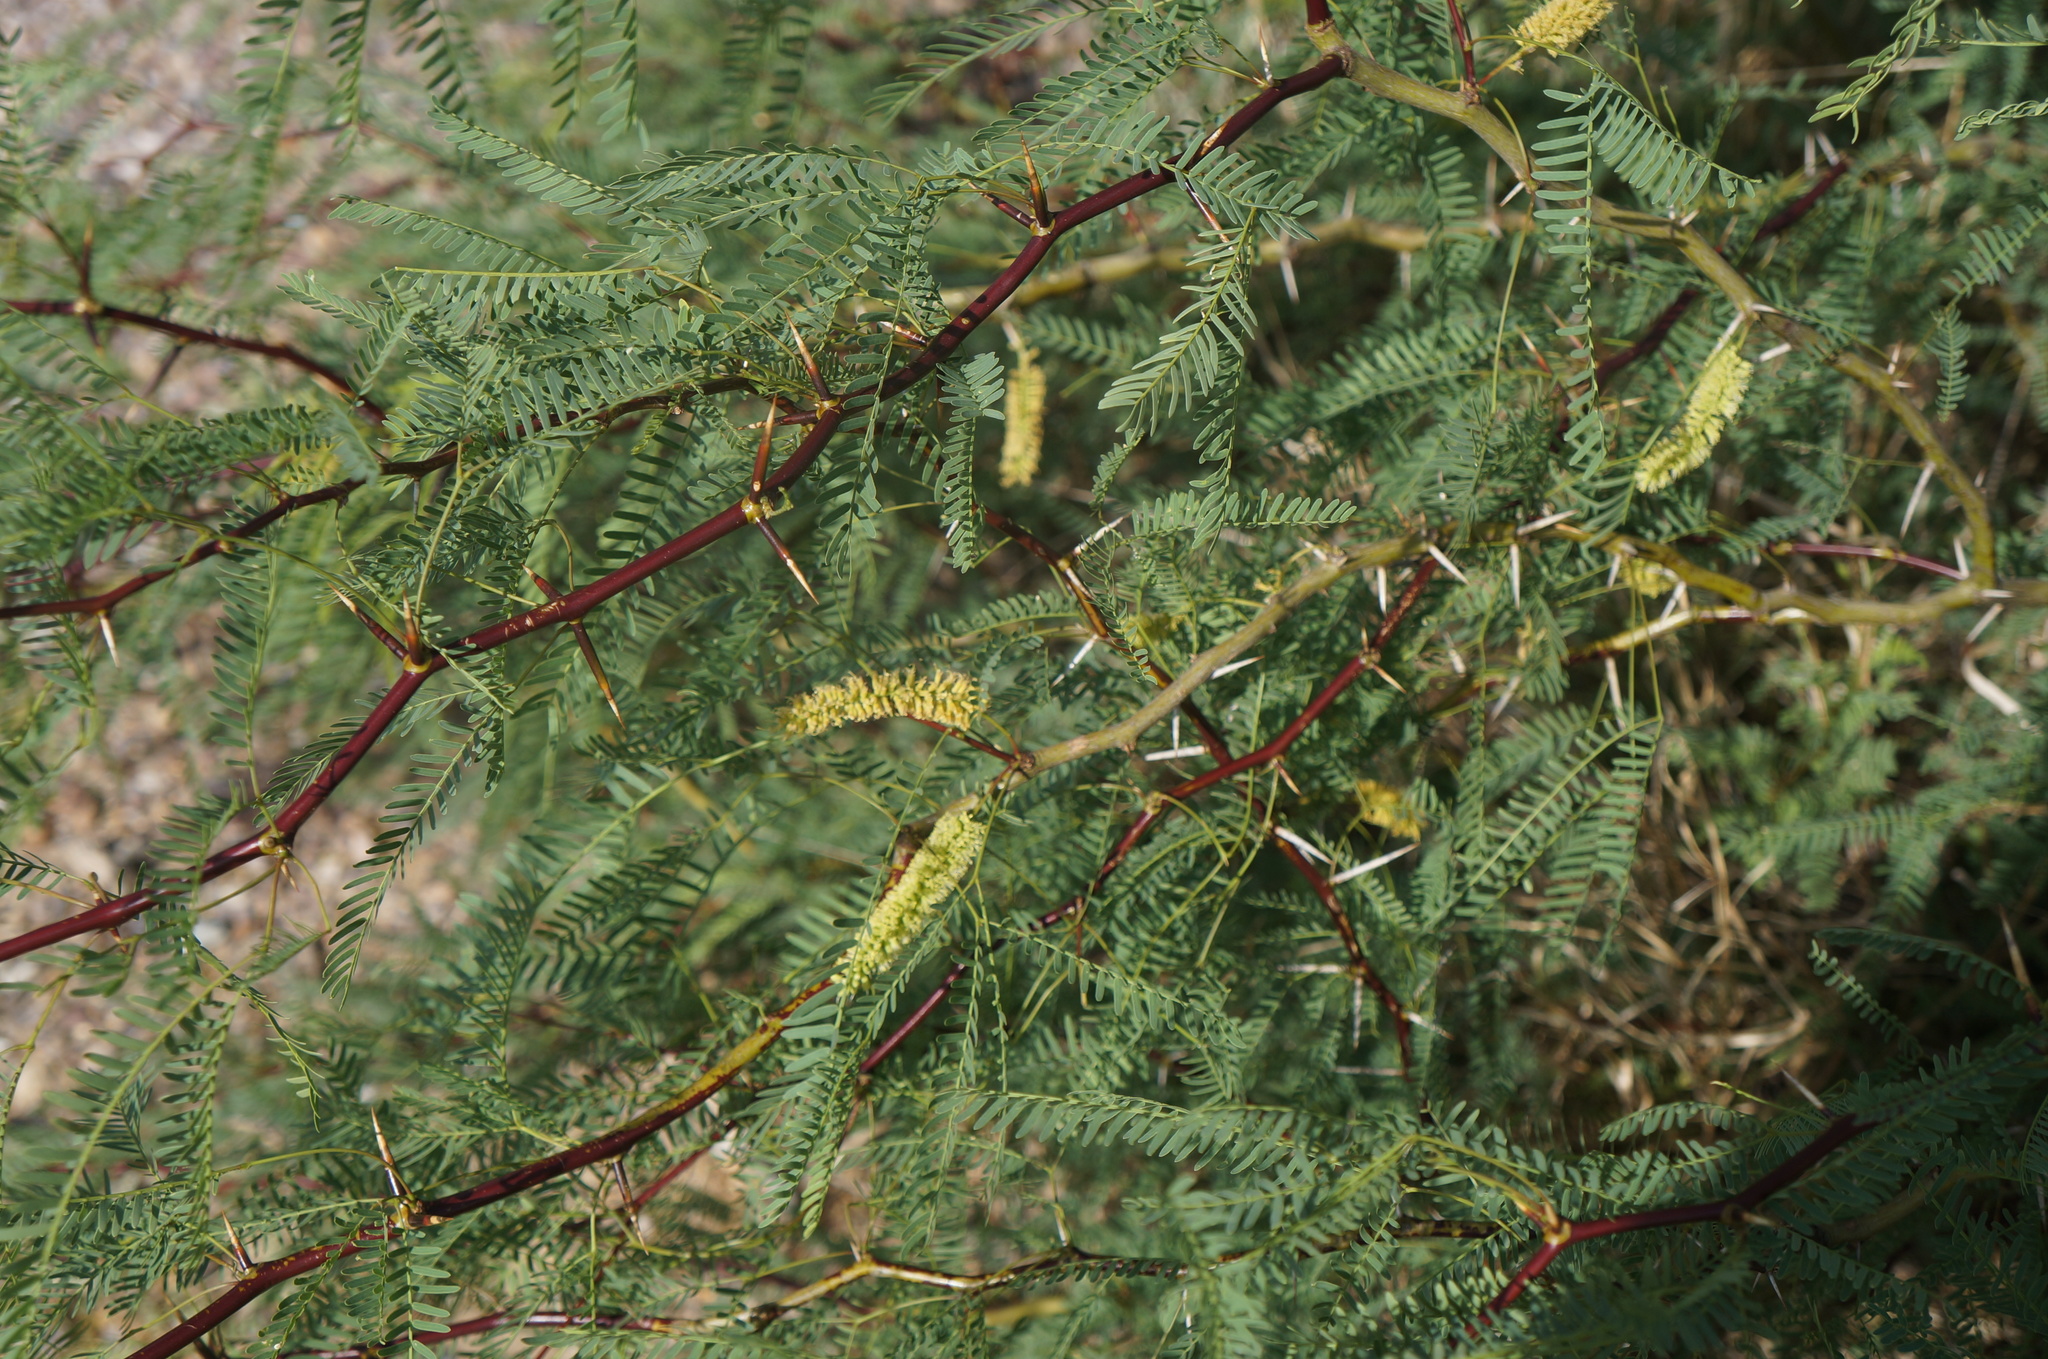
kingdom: Plantae
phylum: Tracheophyta
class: Magnoliopsida
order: Fabales
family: Fabaceae
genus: Prosopis
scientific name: Prosopis pubescens
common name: Screw-bean
